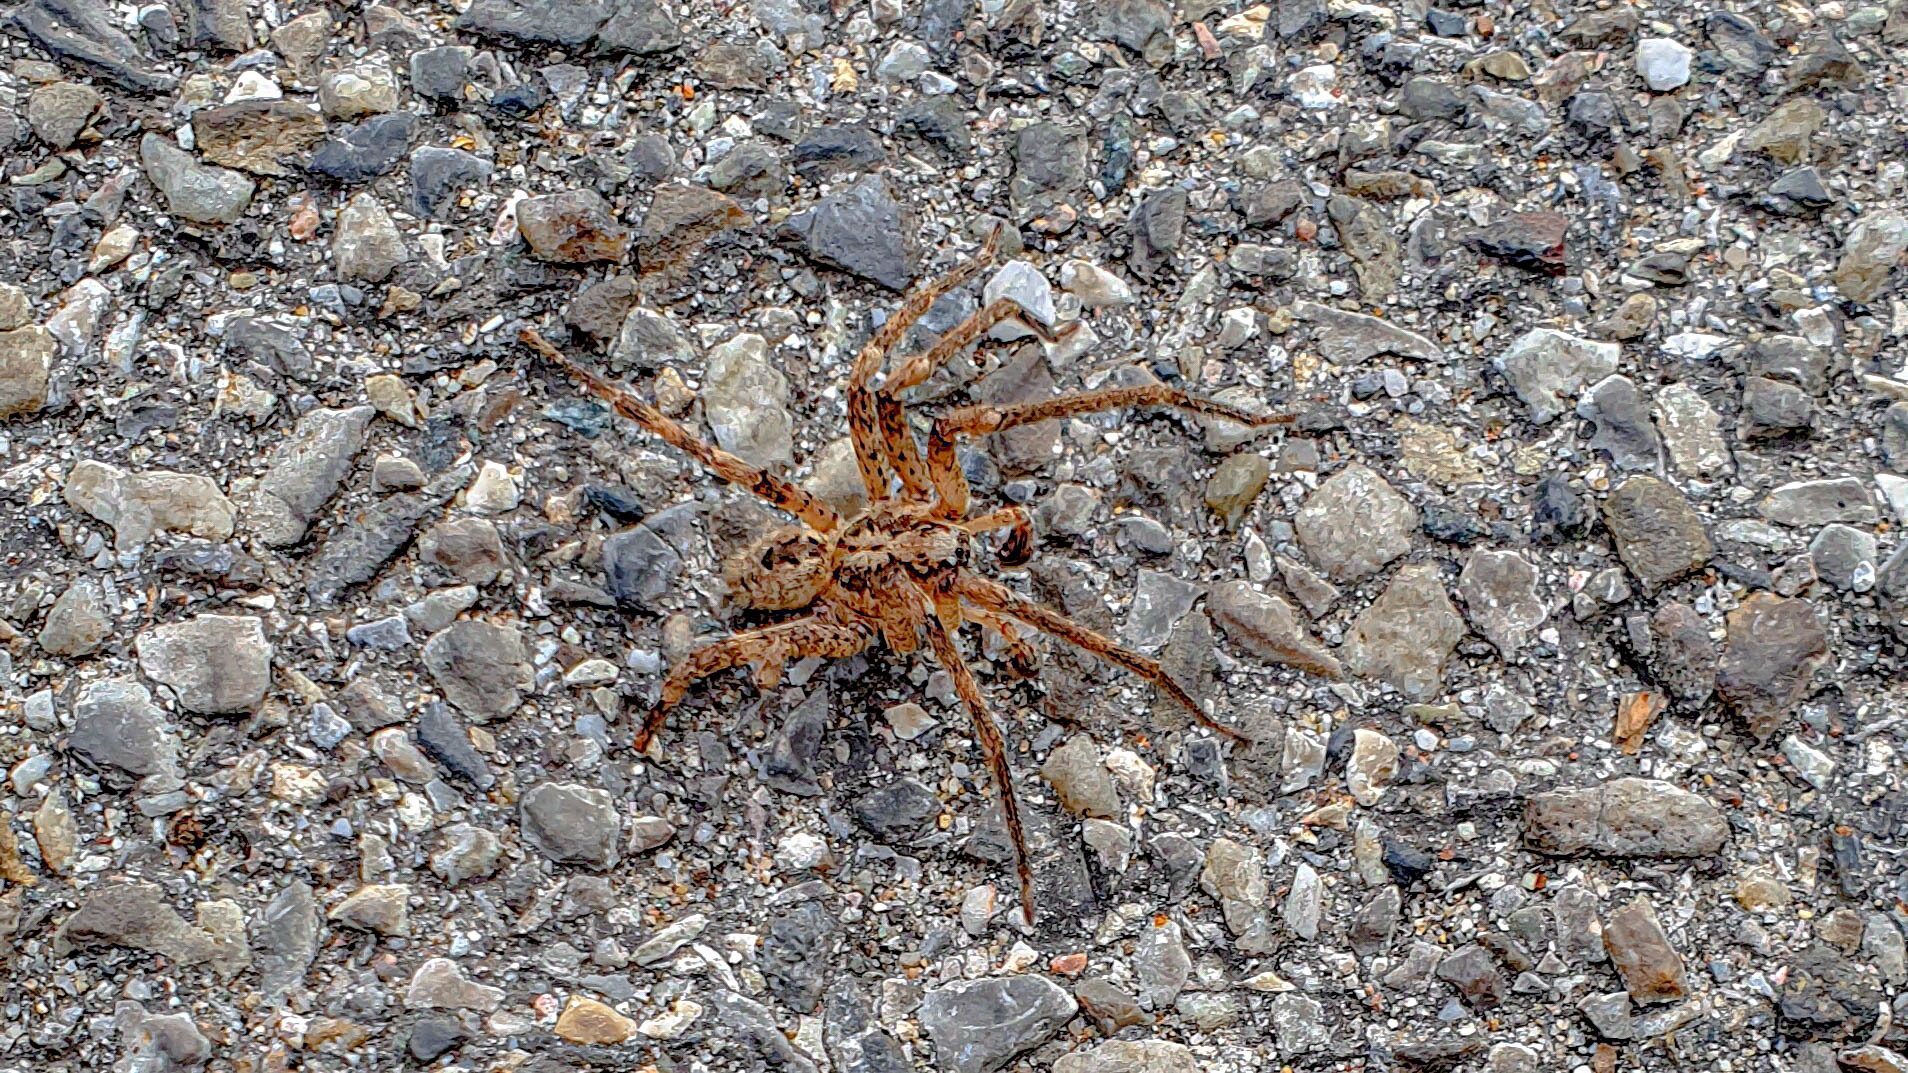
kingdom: Animalia
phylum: Arthropoda
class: Arachnida
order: Araneae
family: Zoropsidae
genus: Zoropsis
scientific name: Zoropsis spinimana
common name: Zoropsid spider
